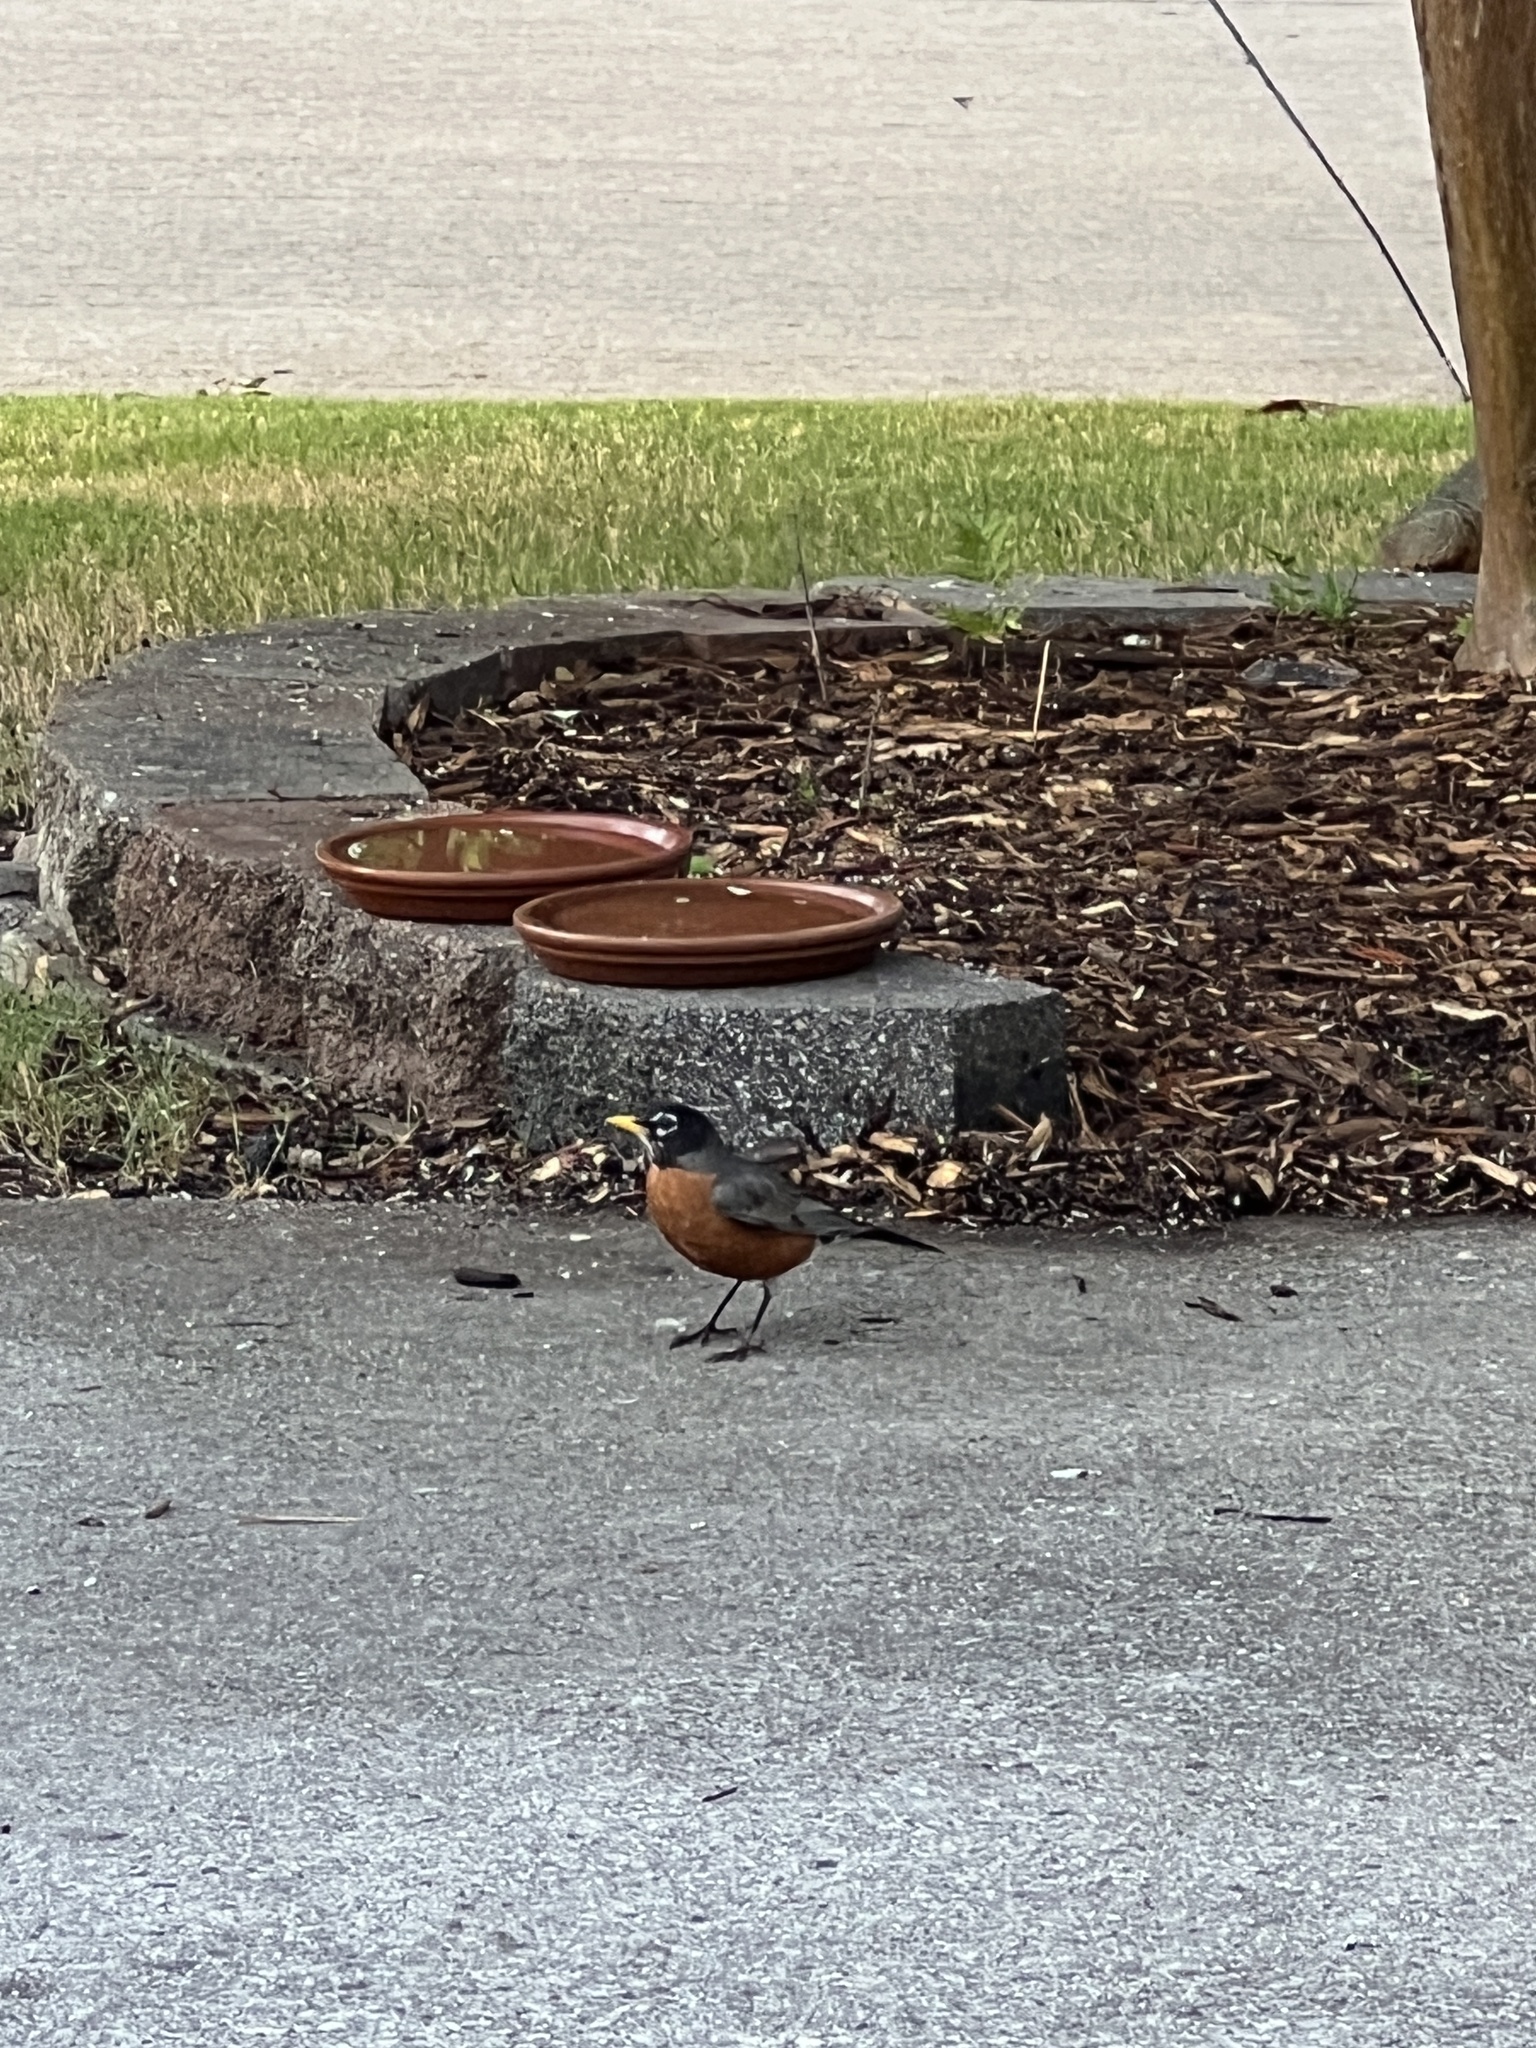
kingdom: Animalia
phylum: Chordata
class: Aves
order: Passeriformes
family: Turdidae
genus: Turdus
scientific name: Turdus migratorius
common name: American robin
